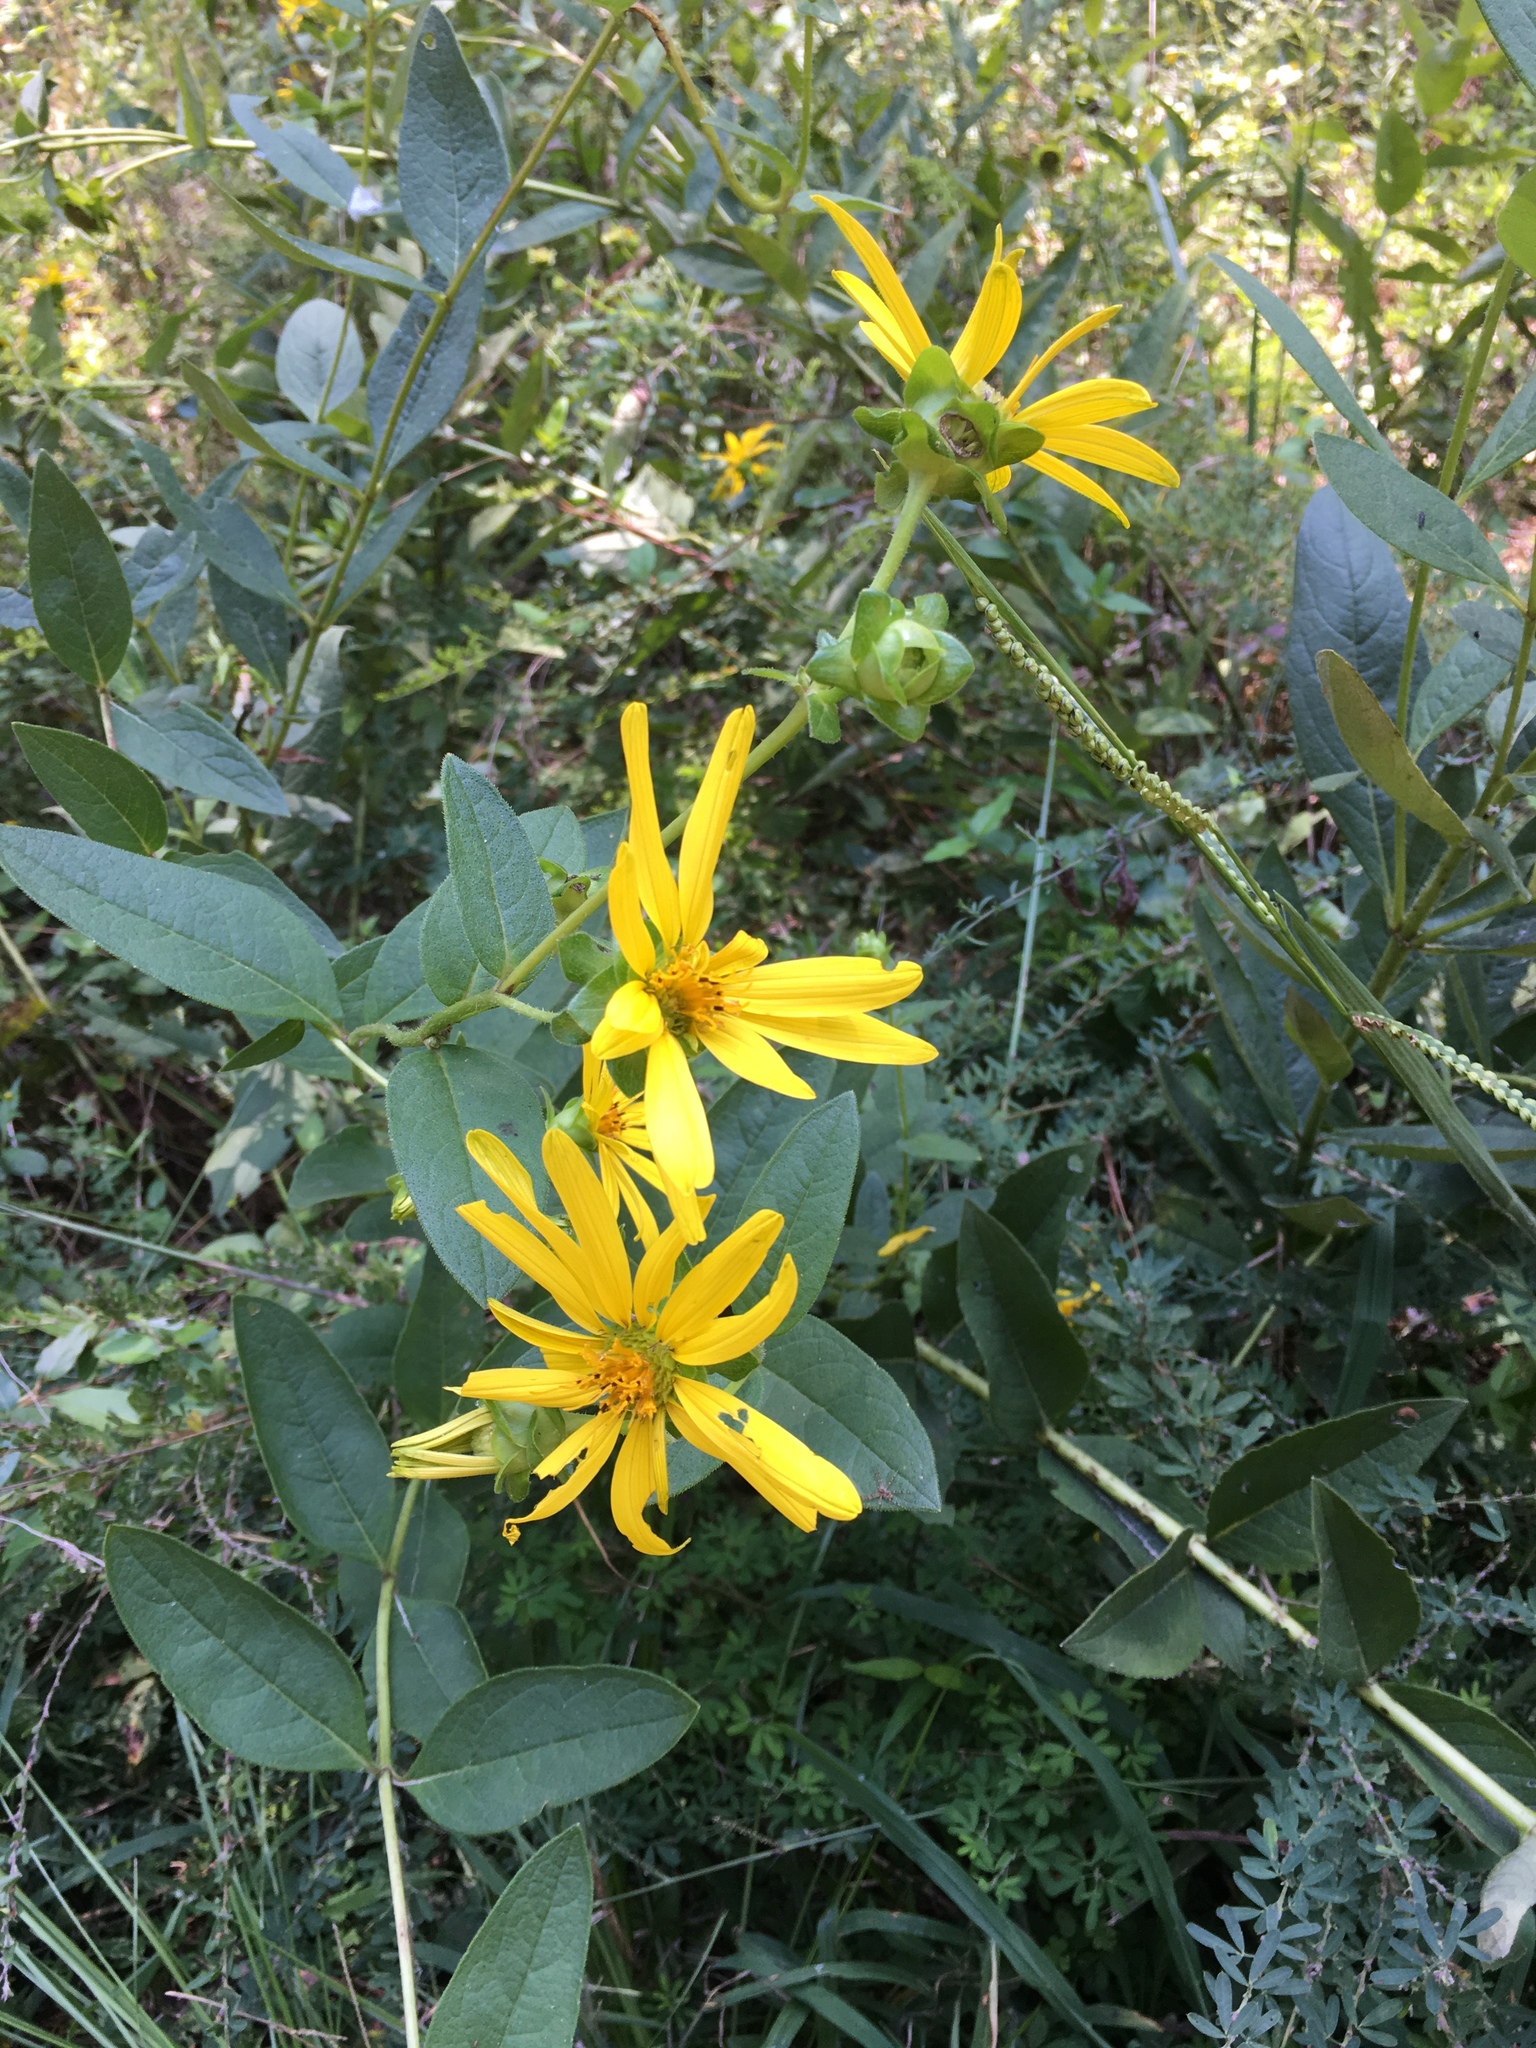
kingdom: Plantae
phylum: Tracheophyta
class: Magnoliopsida
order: Asterales
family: Asteraceae
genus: Silphium
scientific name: Silphium asteriscus
